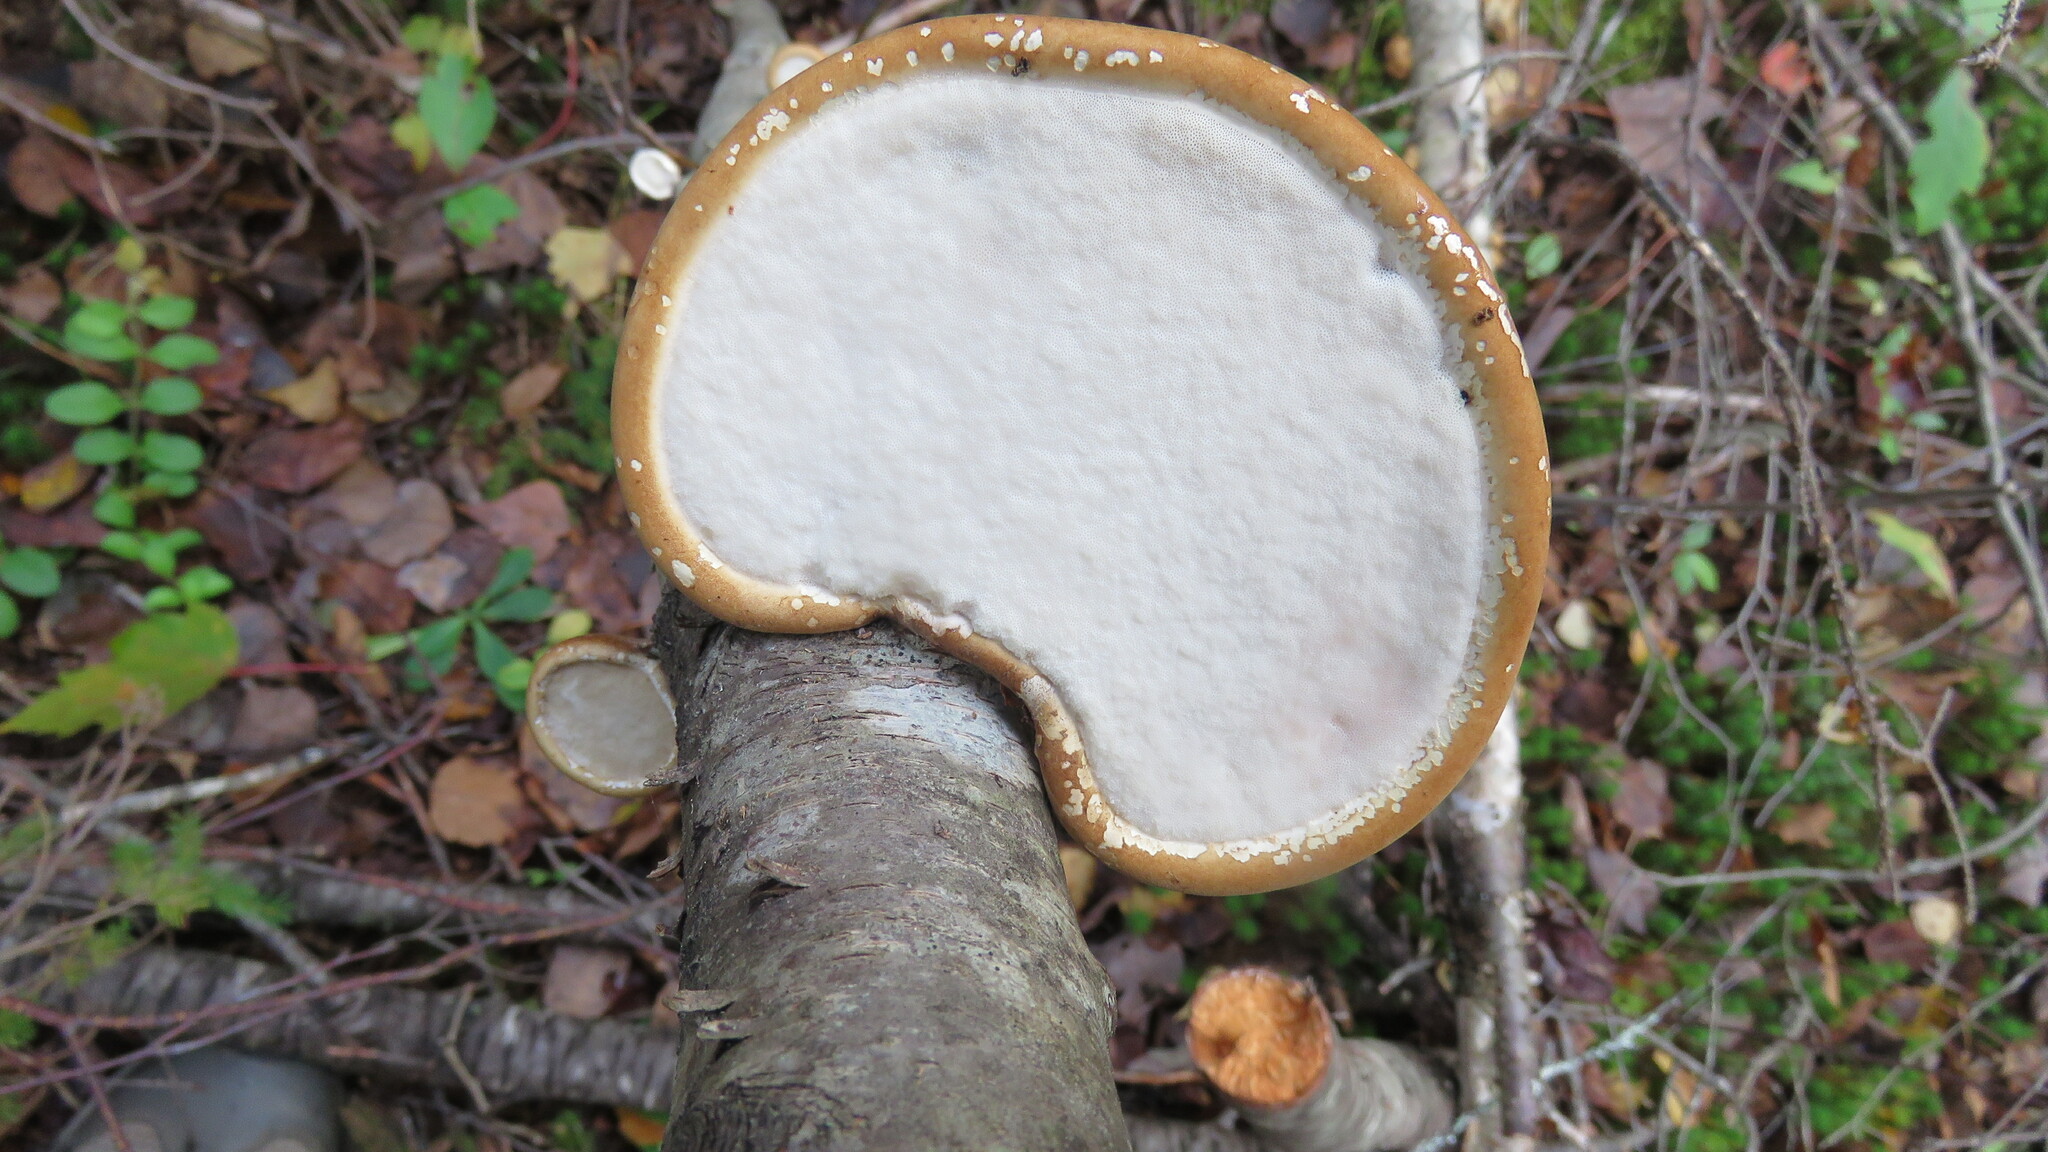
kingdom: Fungi
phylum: Basidiomycota
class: Agaricomycetes
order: Polyporales
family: Fomitopsidaceae
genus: Fomitopsis
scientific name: Fomitopsis betulina
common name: Birch polypore
